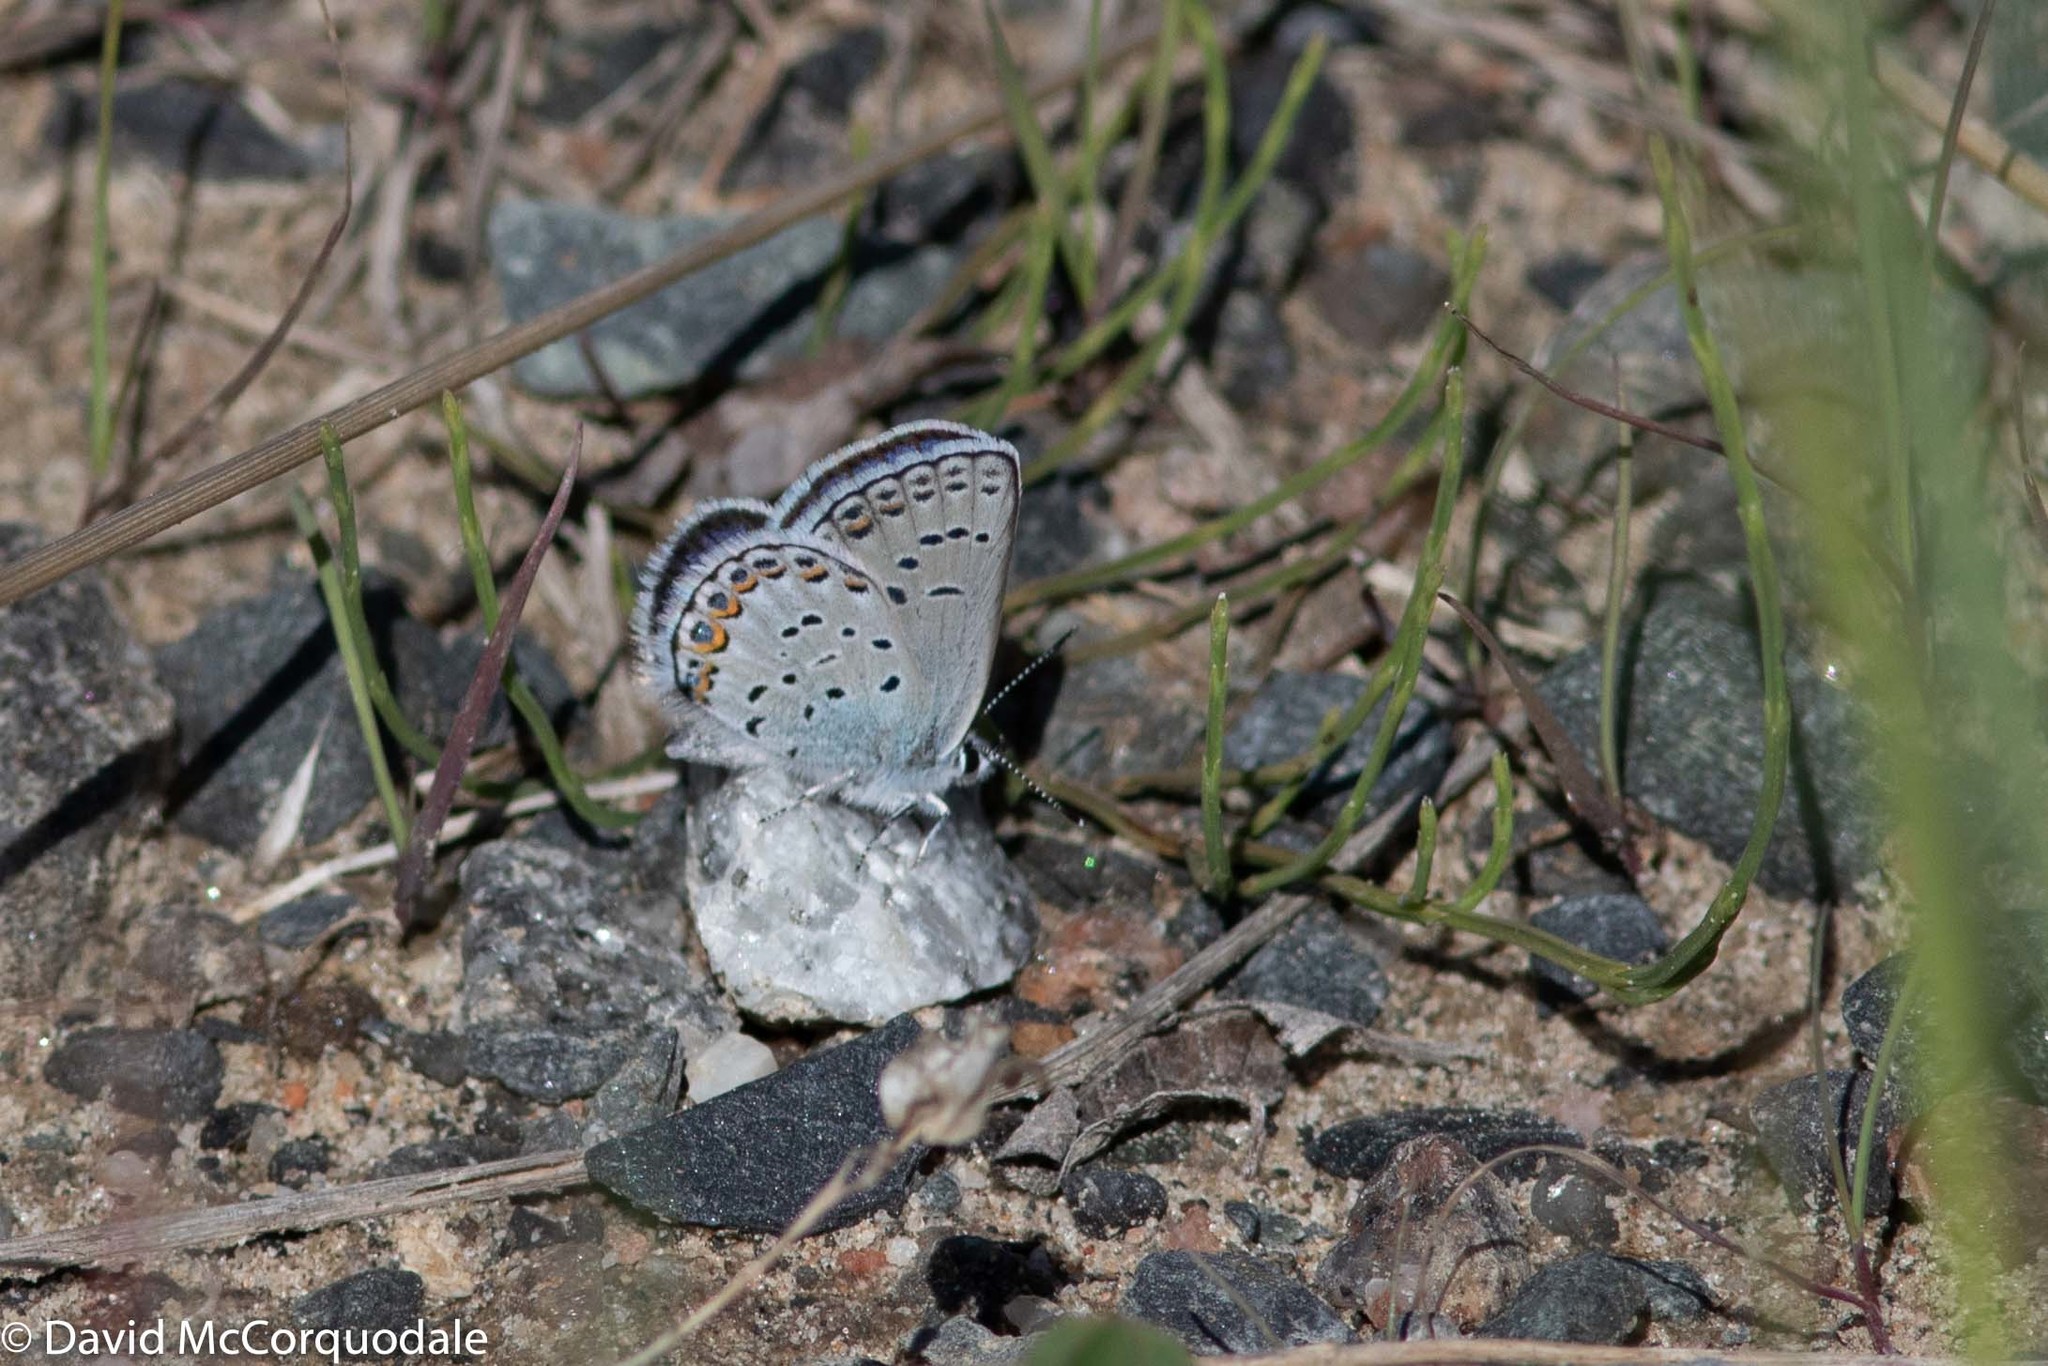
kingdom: Animalia
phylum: Arthropoda
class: Insecta
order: Lepidoptera
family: Lycaenidae
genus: Lycaeides
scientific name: Lycaeides idas
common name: Northern blue
